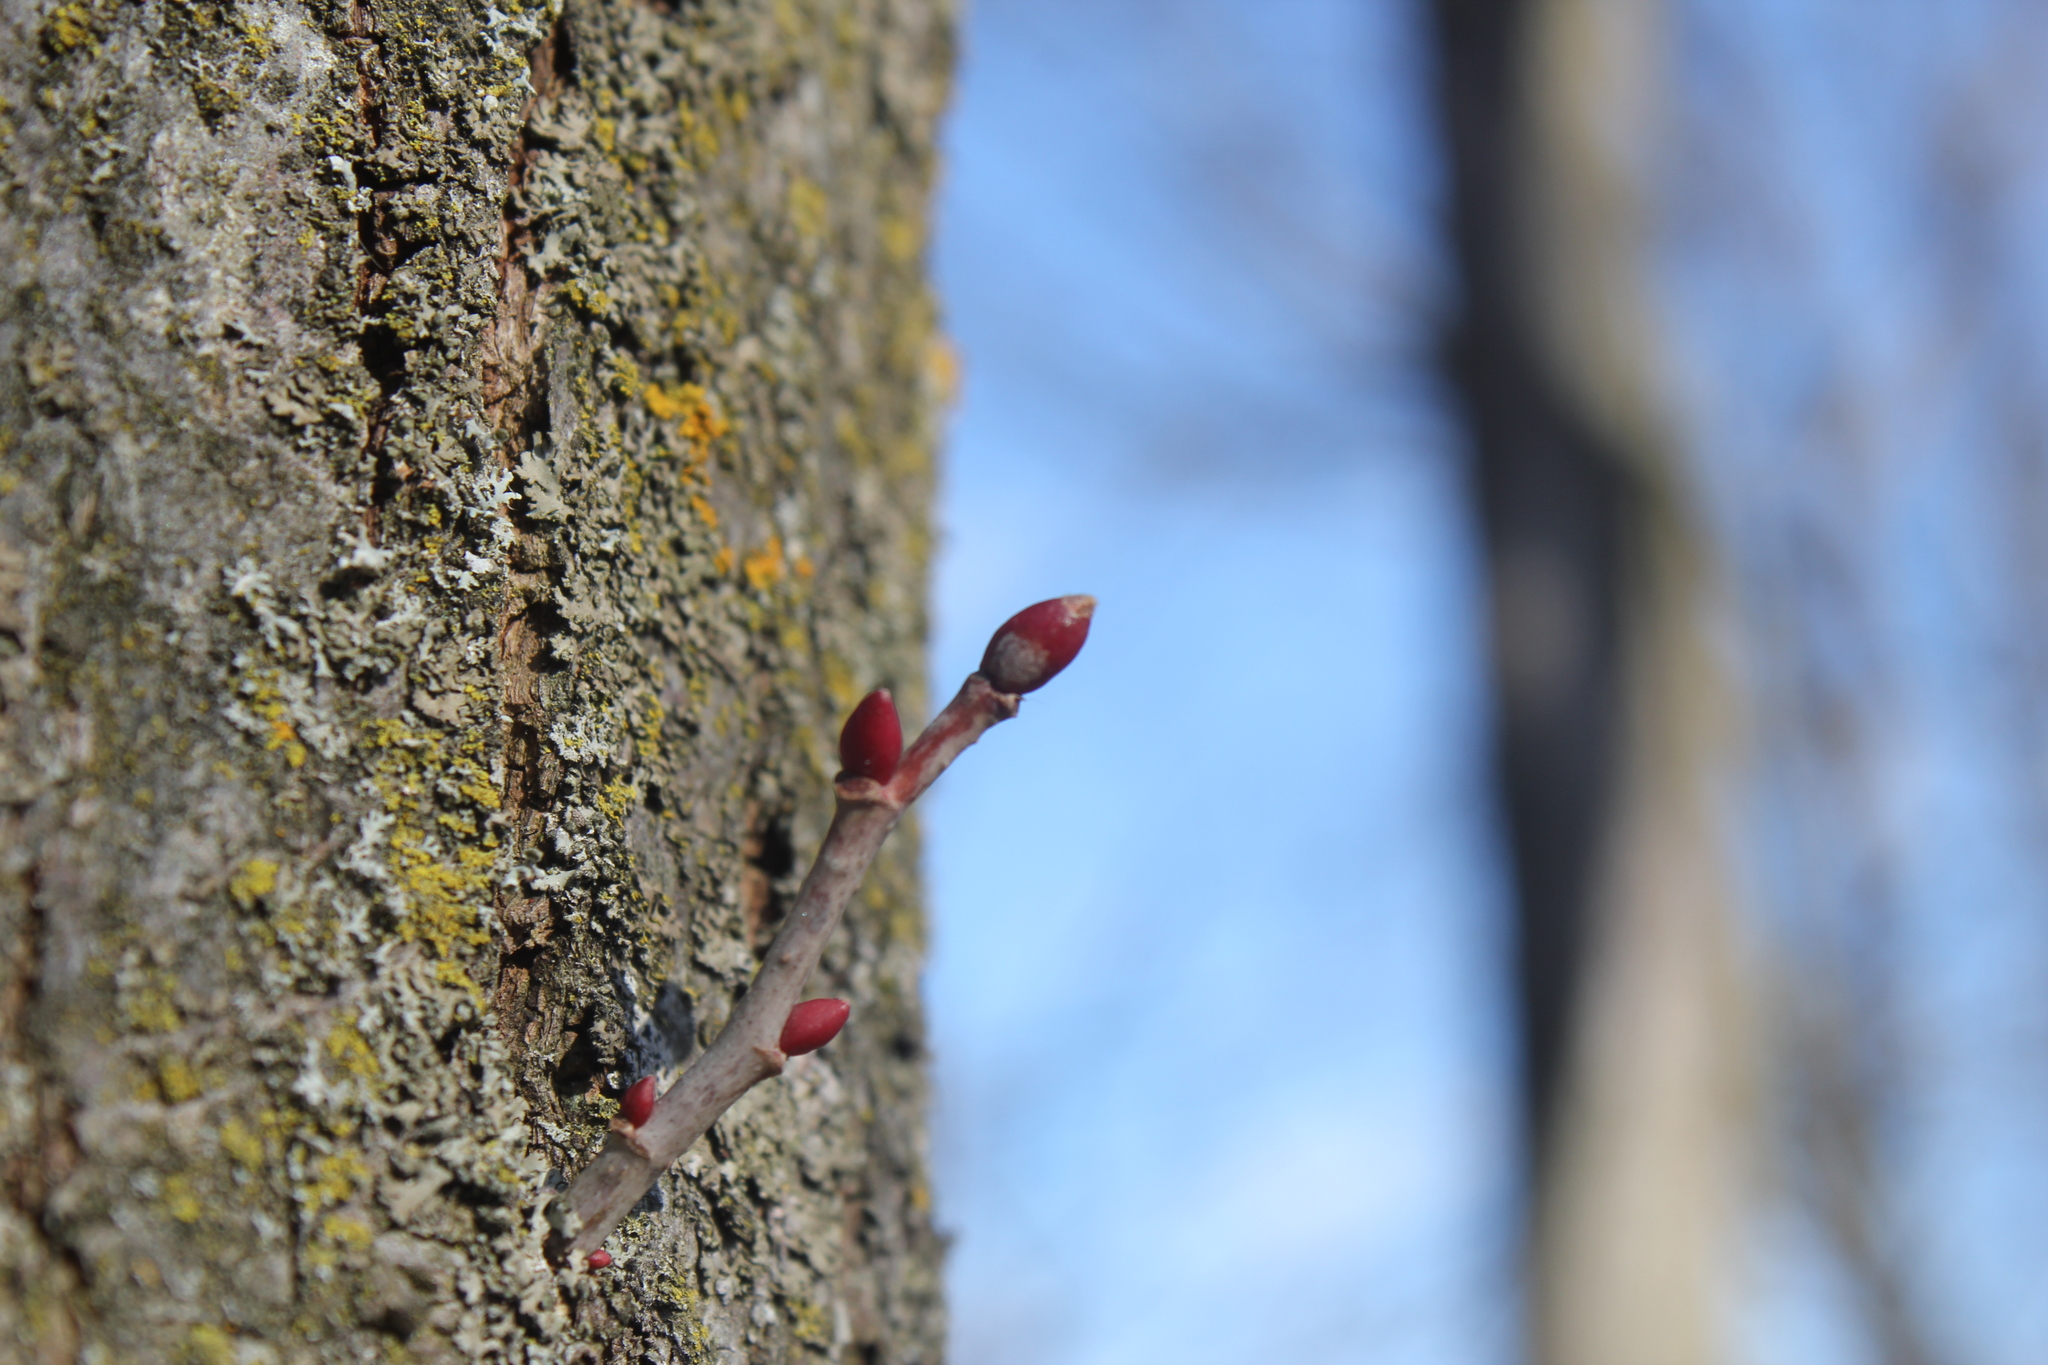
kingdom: Plantae
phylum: Tracheophyta
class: Magnoliopsida
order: Malvales
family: Malvaceae
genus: Tilia
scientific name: Tilia americana
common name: Basswood
